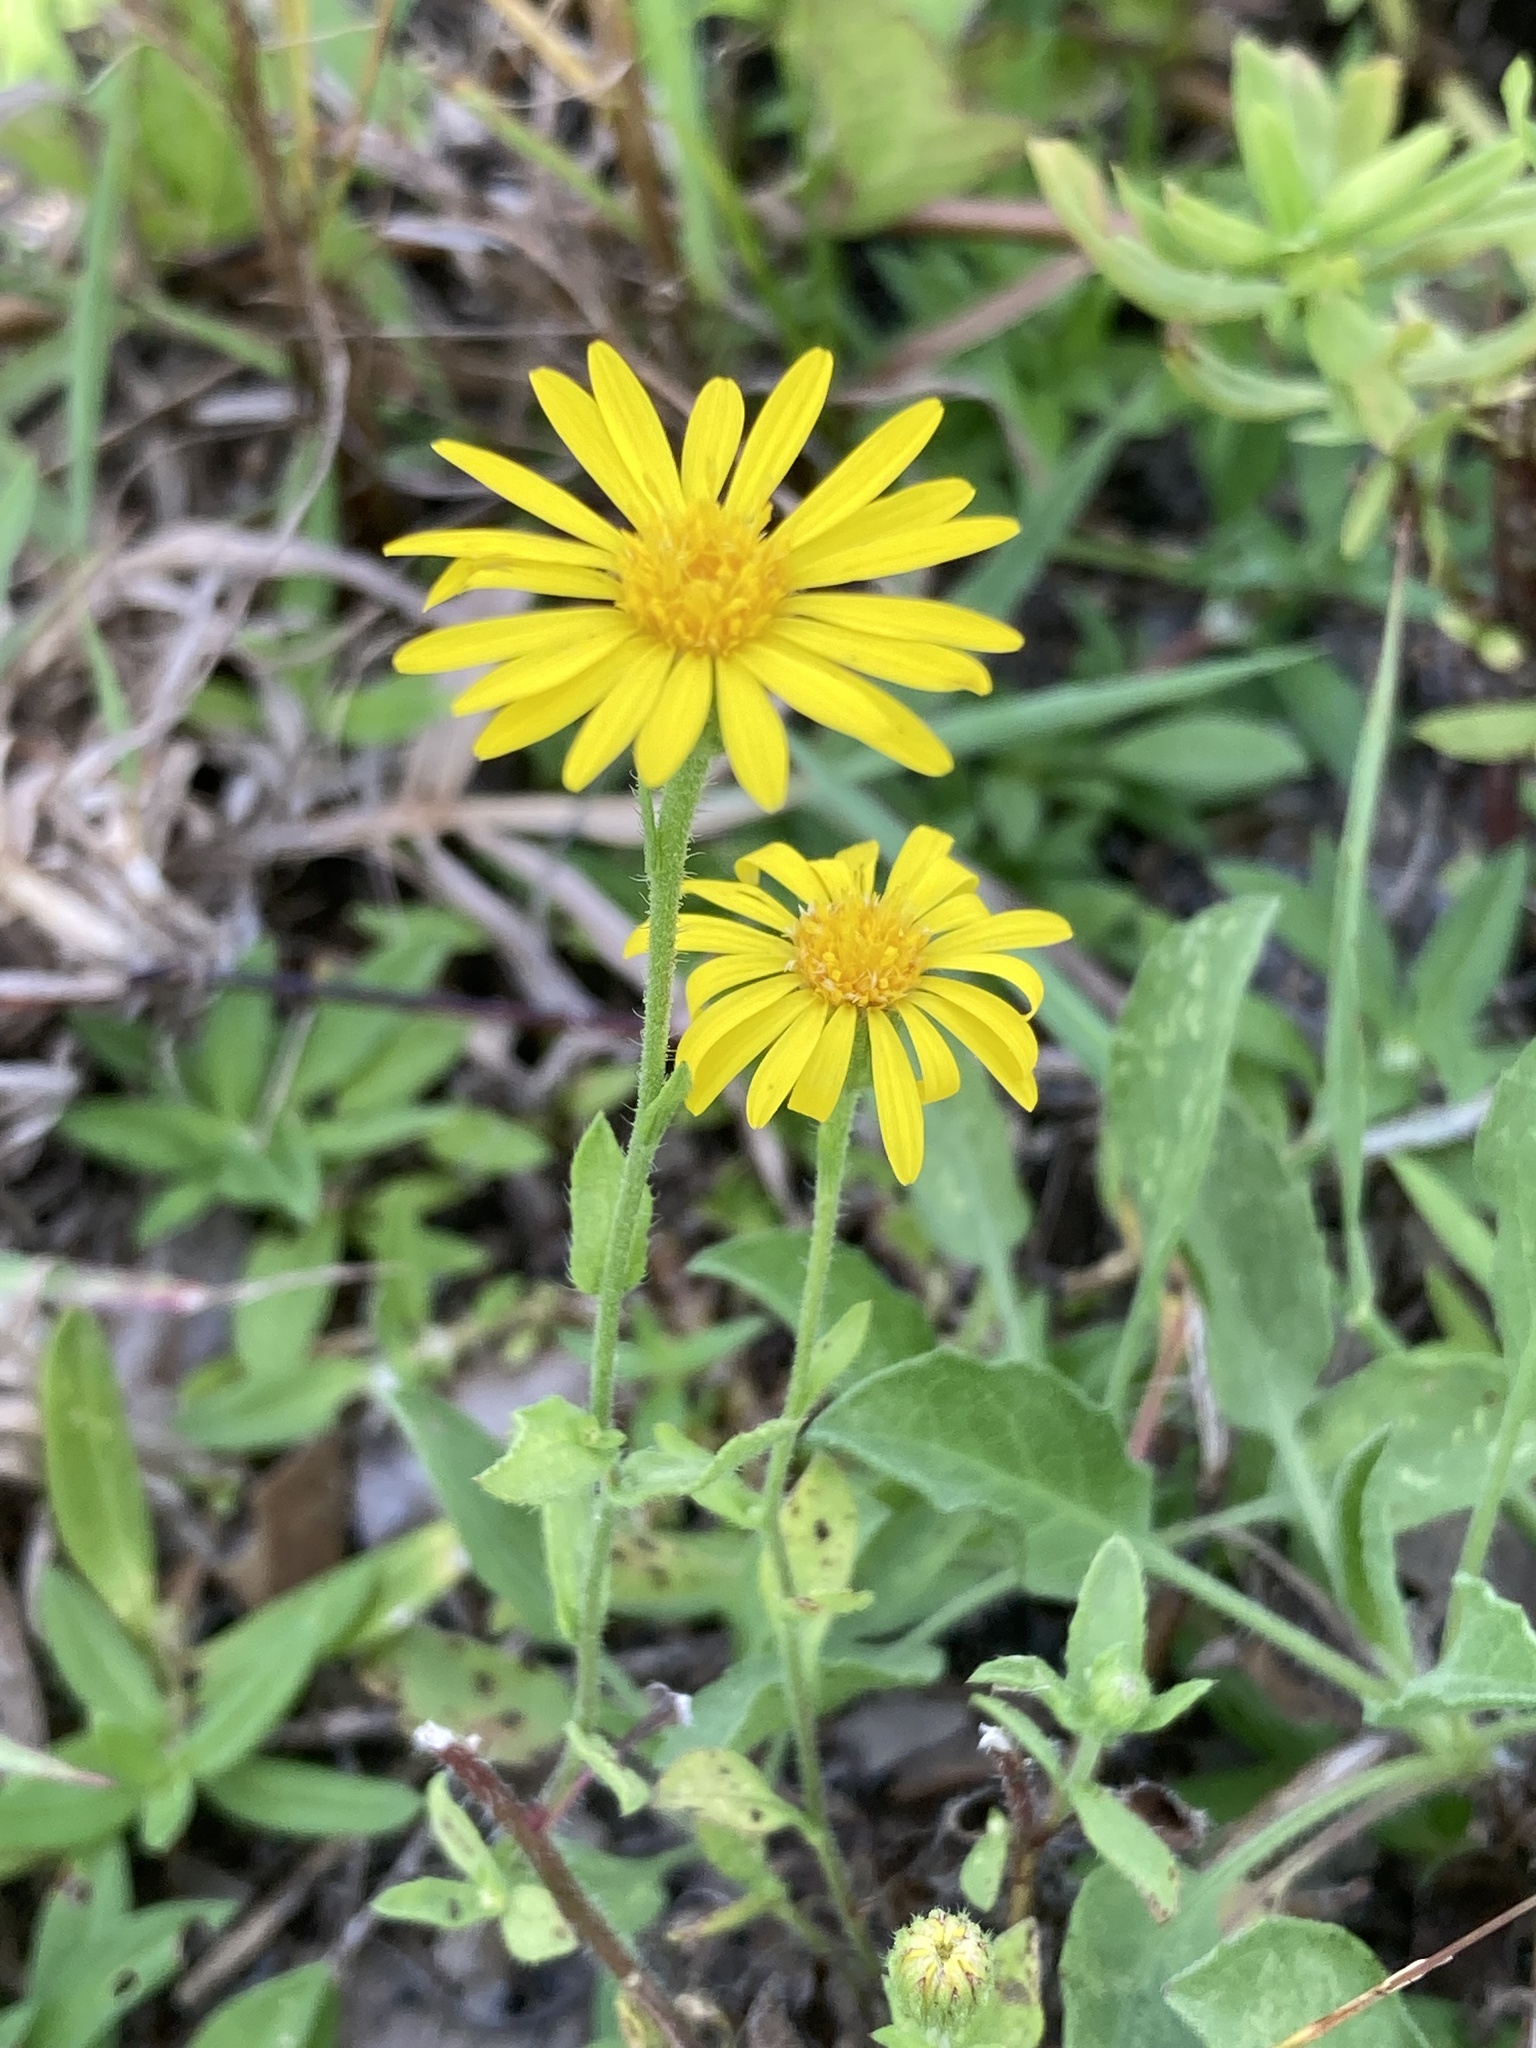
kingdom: Plantae
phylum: Tracheophyta
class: Magnoliopsida
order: Asterales
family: Asteraceae
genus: Heterotheca
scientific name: Heterotheca subaxillaris
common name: Camphorweed
